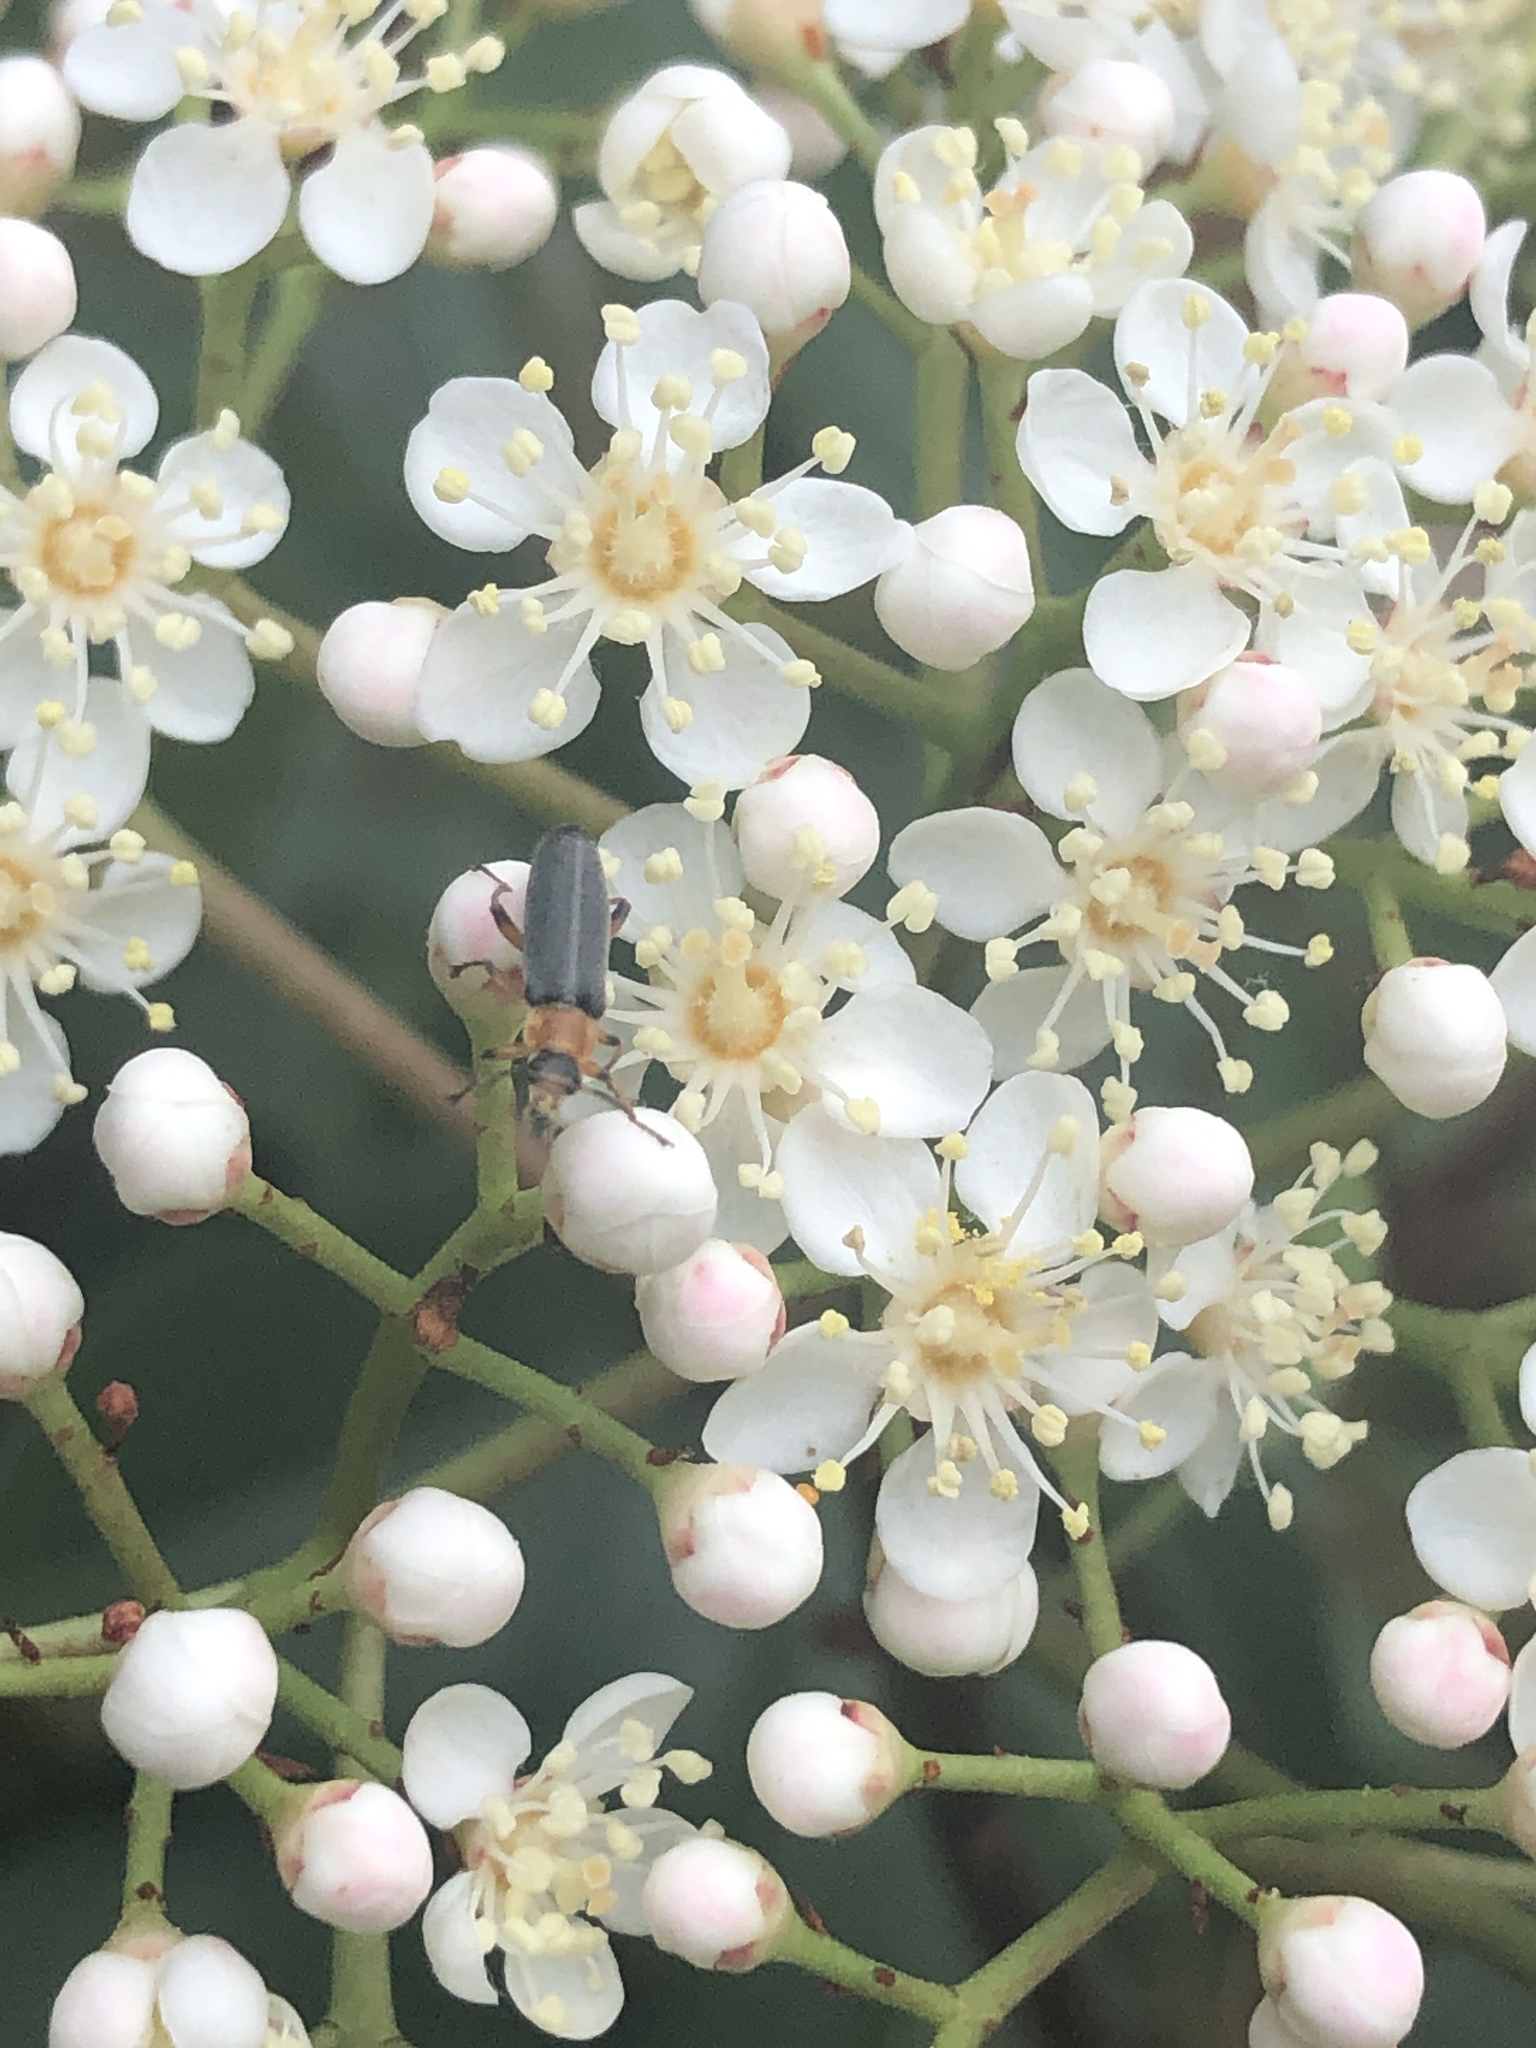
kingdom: Animalia
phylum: Arthropoda
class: Insecta
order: Coleoptera
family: Melandryidae
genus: Osphya
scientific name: Osphya varians
